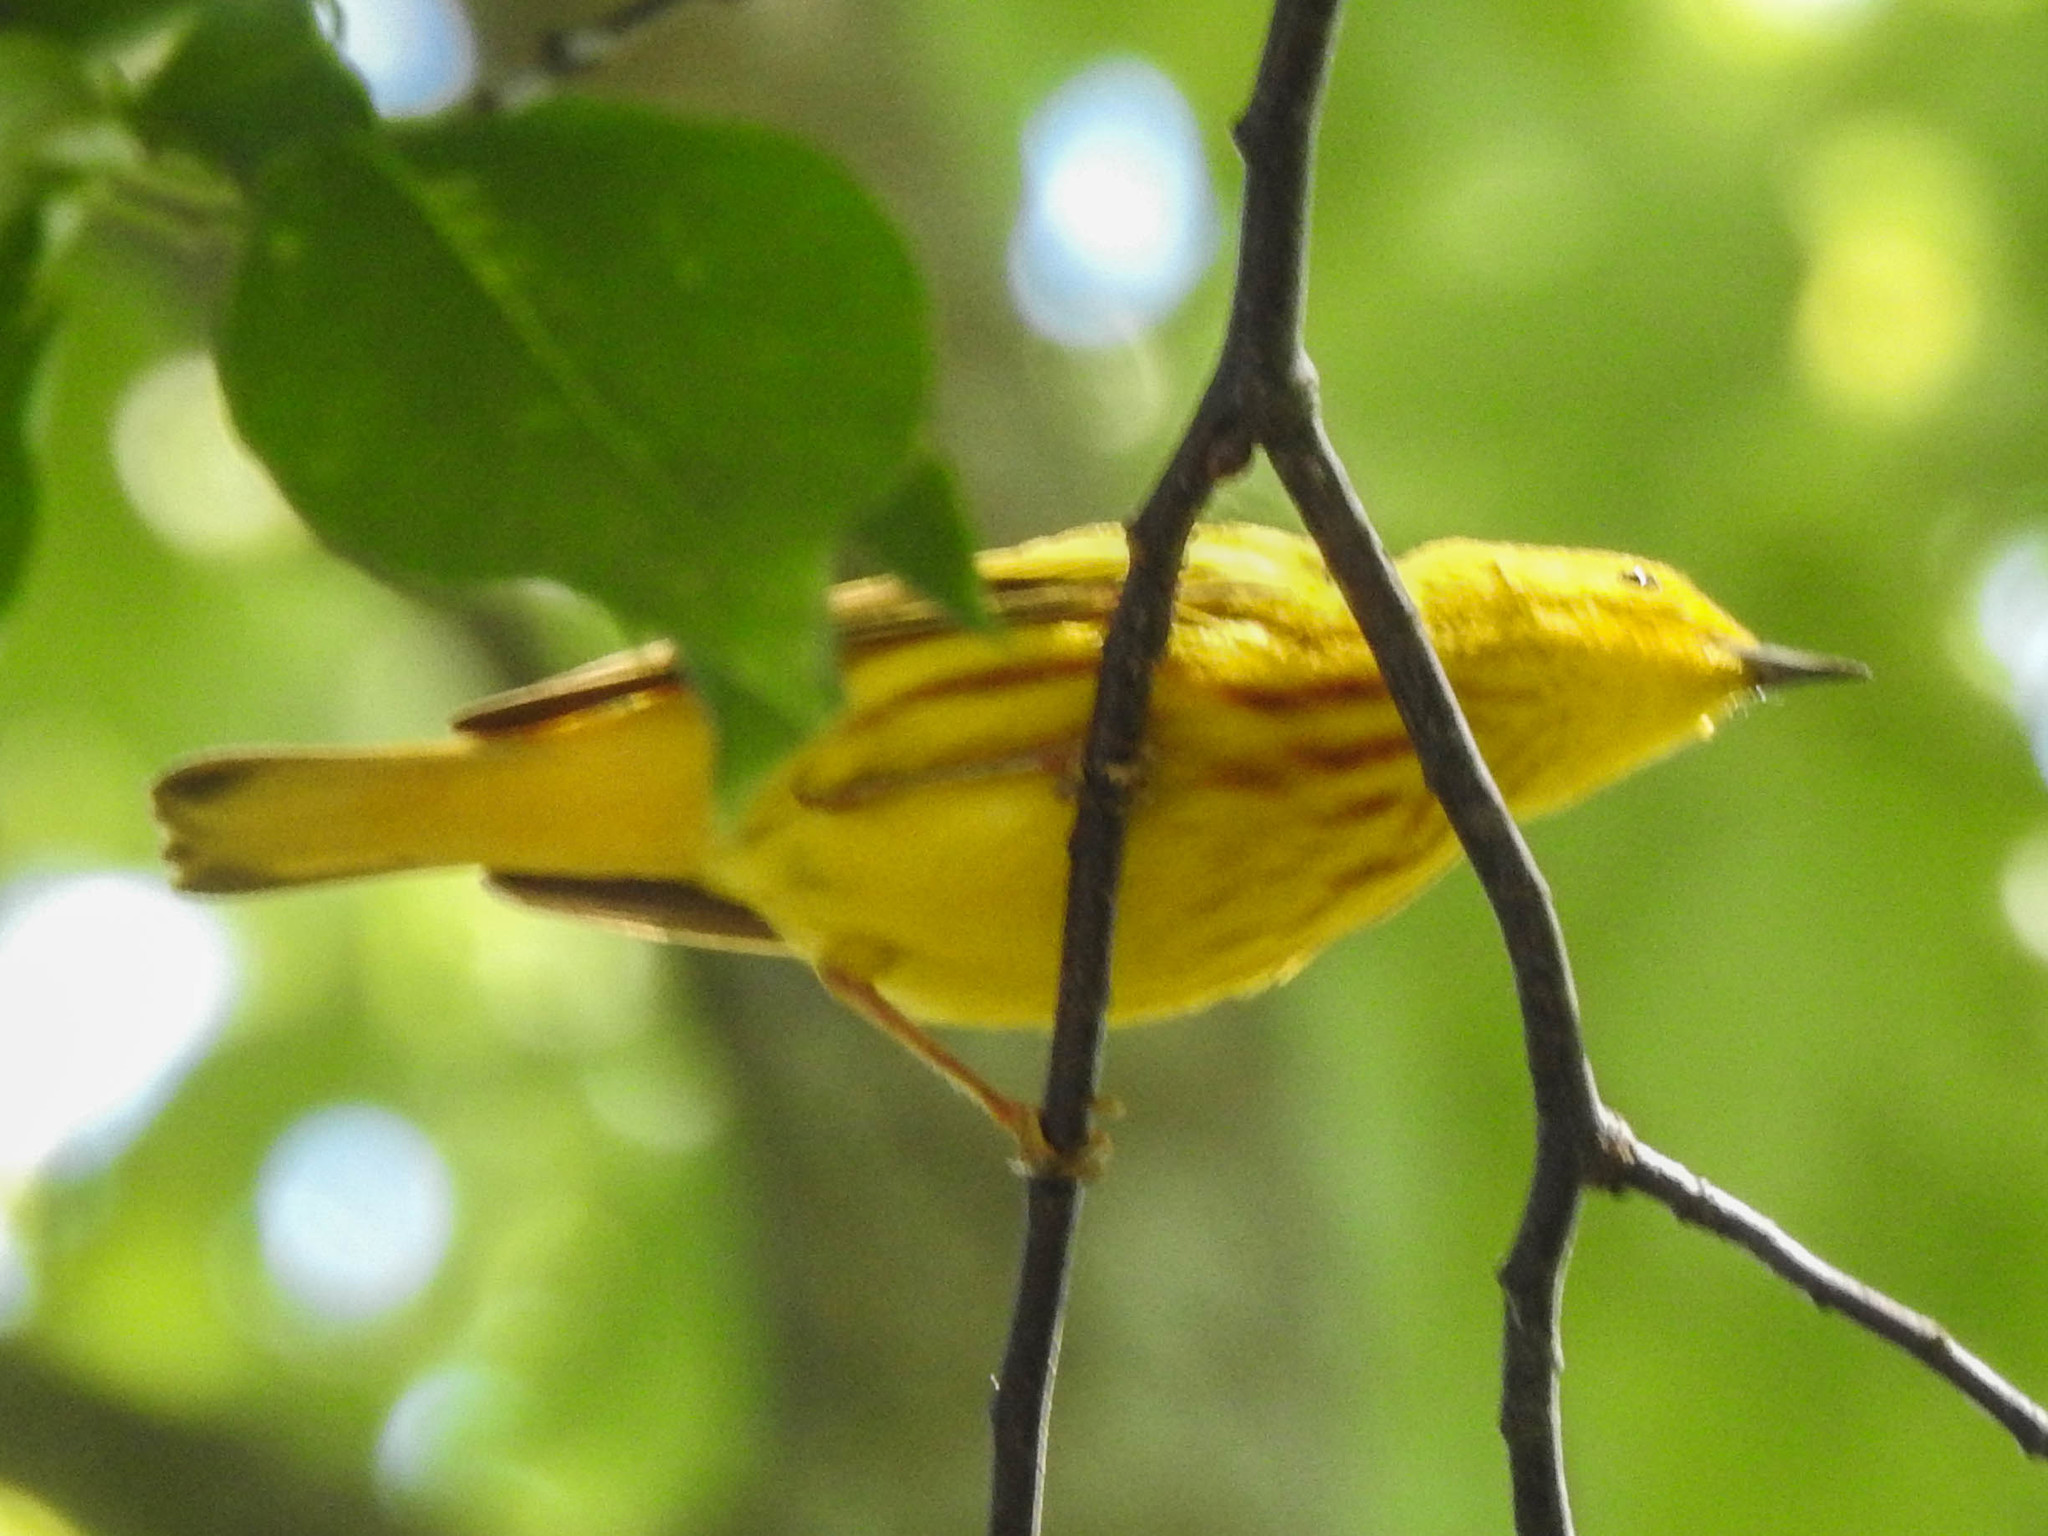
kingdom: Animalia
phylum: Chordata
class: Aves
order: Passeriformes
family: Parulidae
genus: Setophaga
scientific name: Setophaga petechia
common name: Yellow warbler
